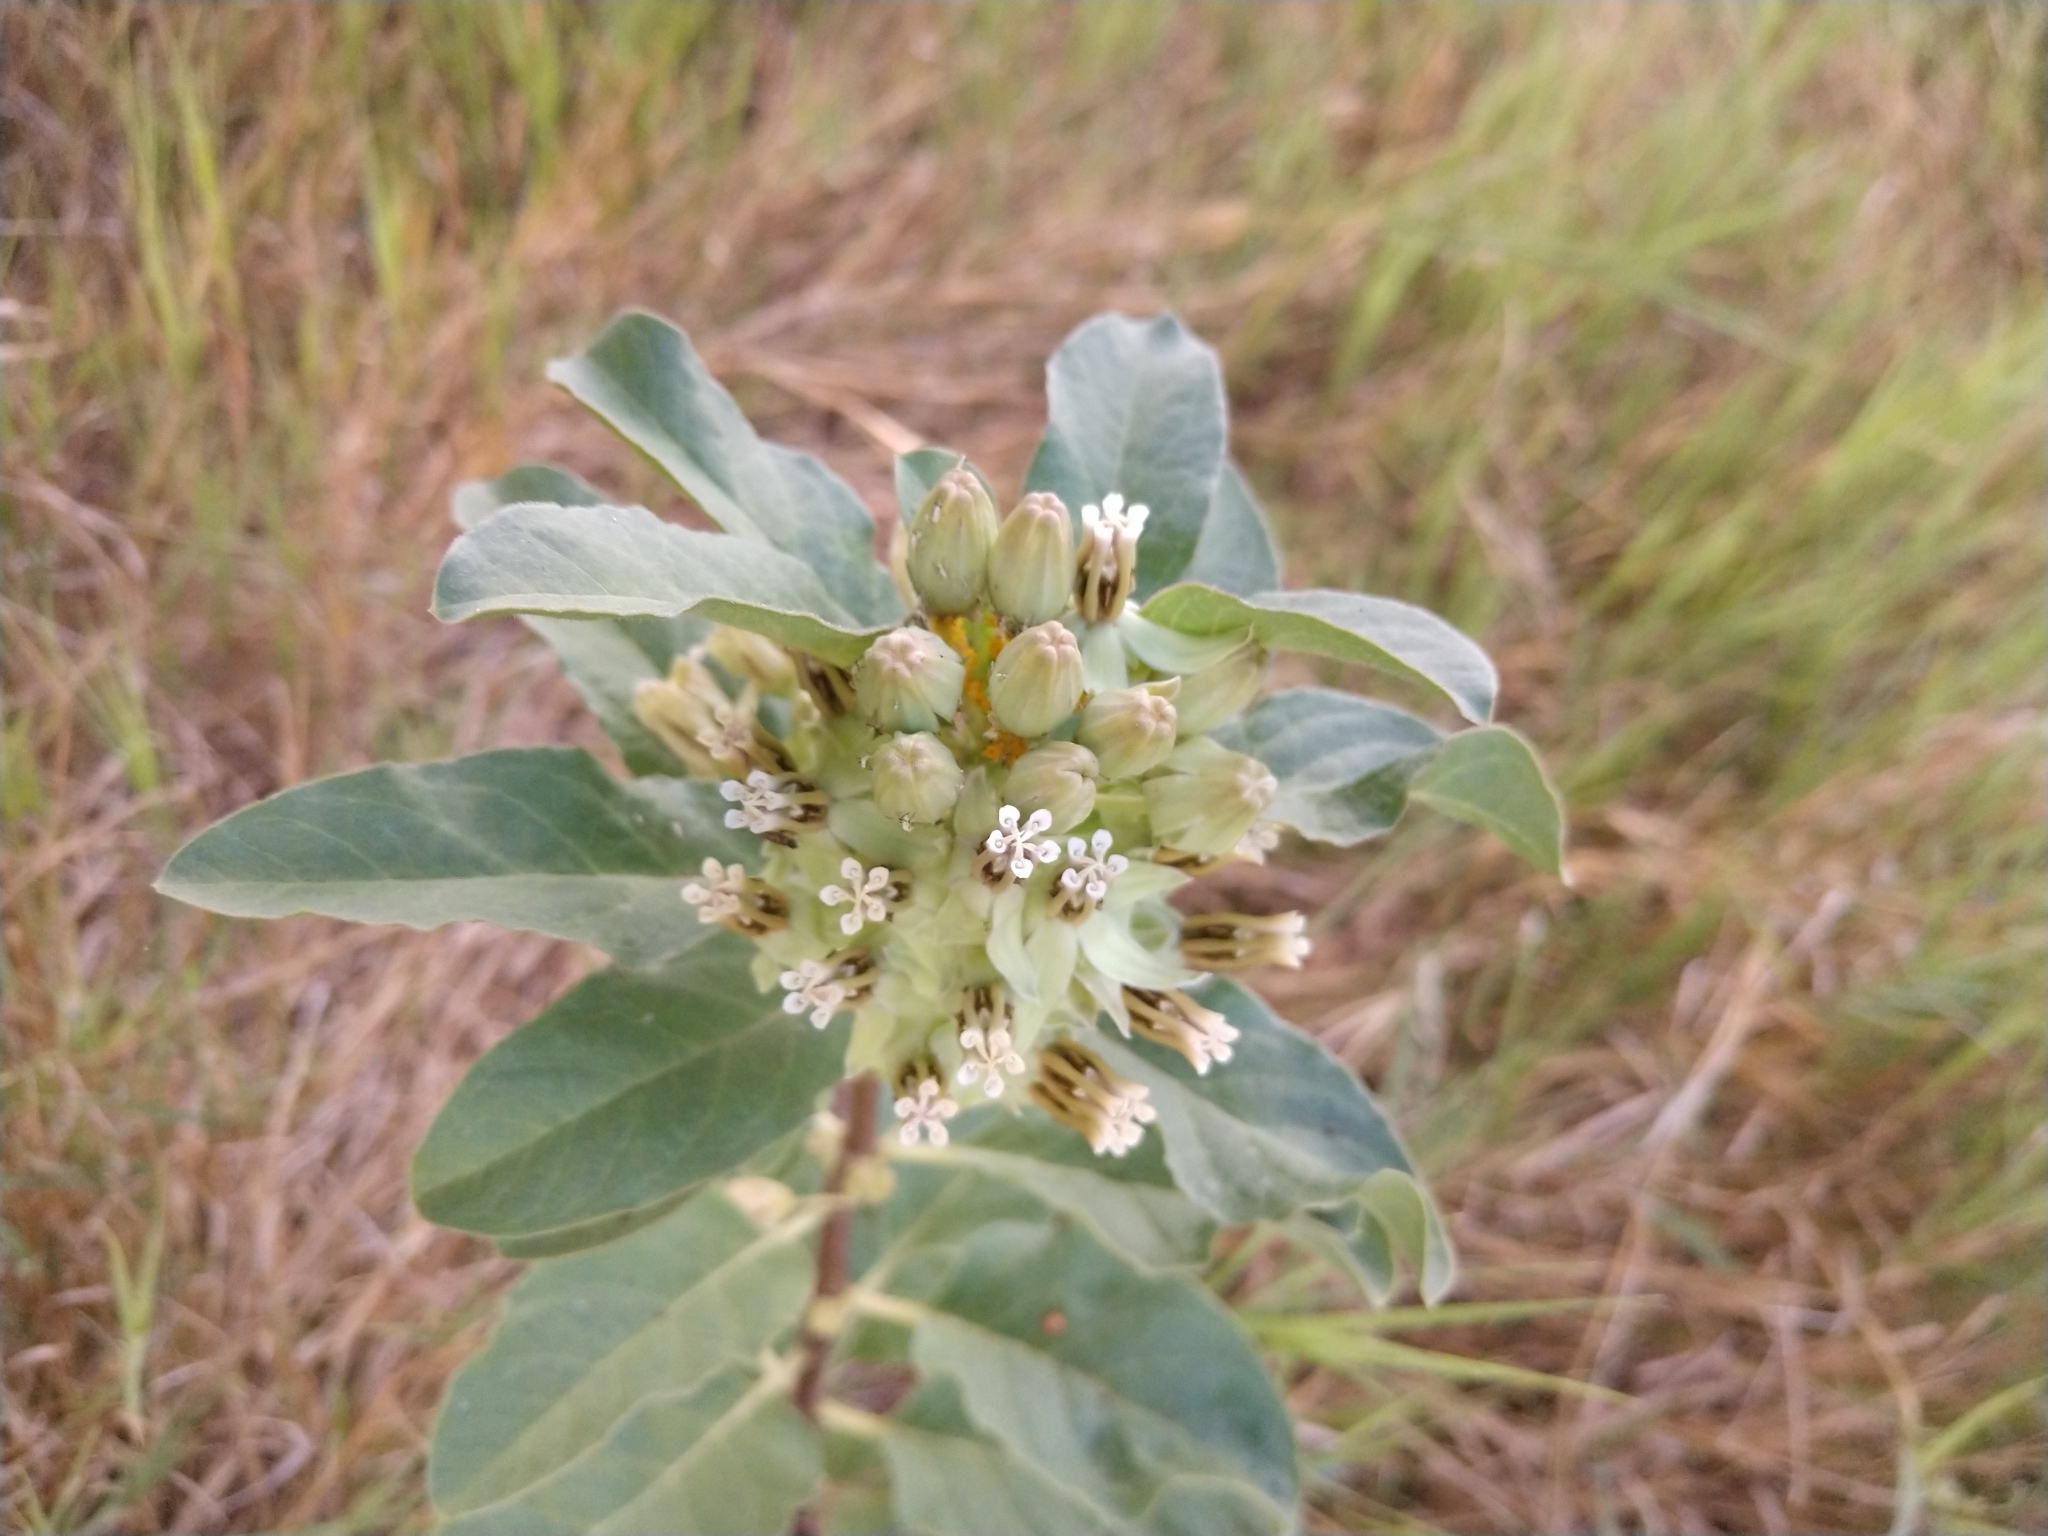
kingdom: Plantae
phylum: Tracheophyta
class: Magnoliopsida
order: Gentianales
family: Apocynaceae
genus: Asclepias
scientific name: Asclepias oenotheroides
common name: Zizotes milkweed
